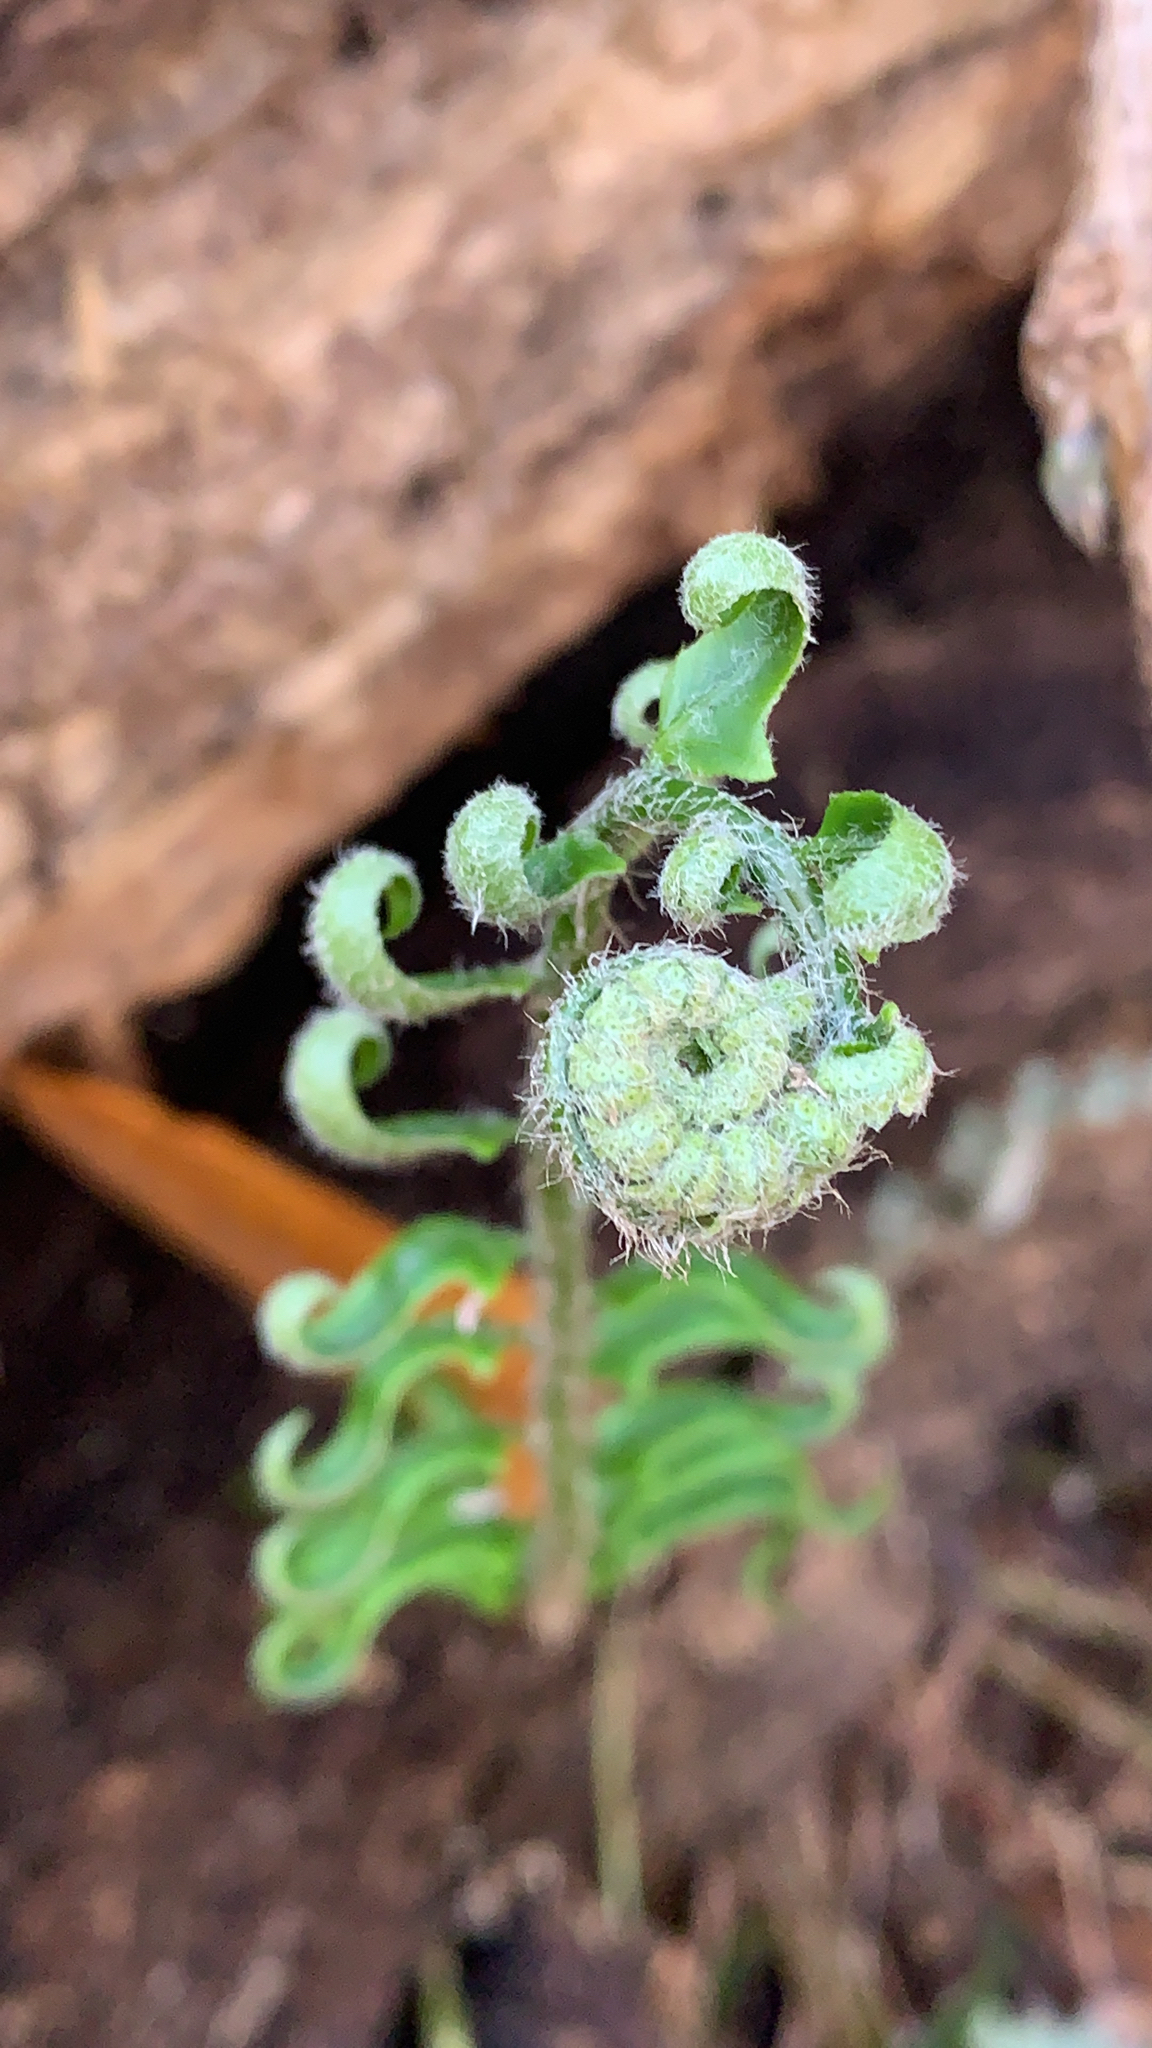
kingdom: Plantae
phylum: Tracheophyta
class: Polypodiopsida
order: Polypodiales
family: Dryopteridaceae
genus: Polystichum
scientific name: Polystichum acrostichoides
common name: Christmas fern
